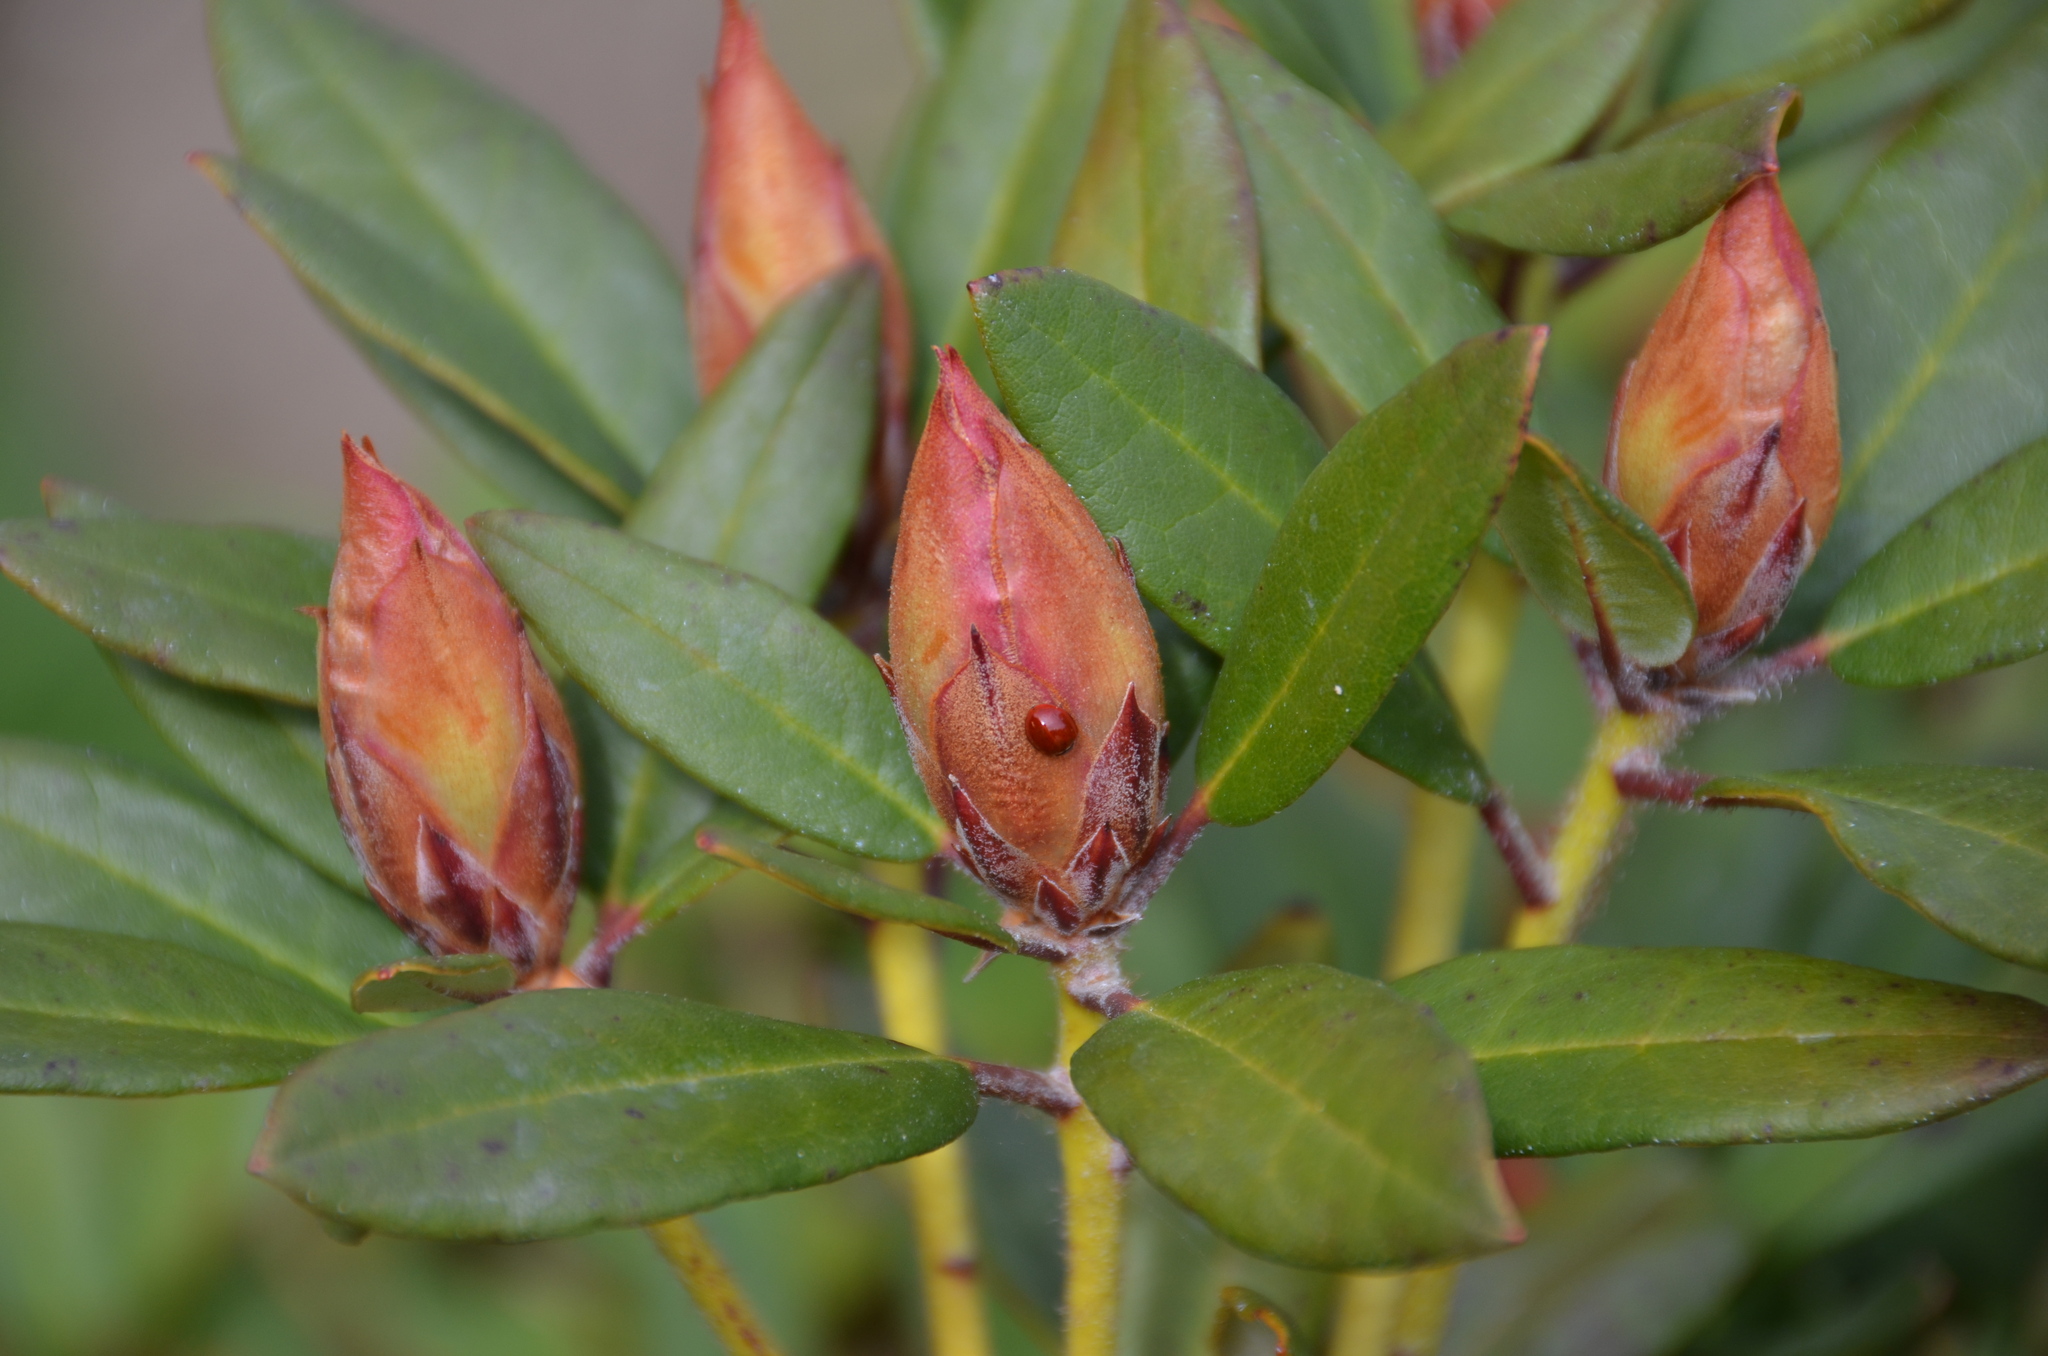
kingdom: Animalia
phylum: Arthropoda
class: Insecta
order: Coleoptera
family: Coccinellidae
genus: Cycloneda
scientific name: Cycloneda polita
